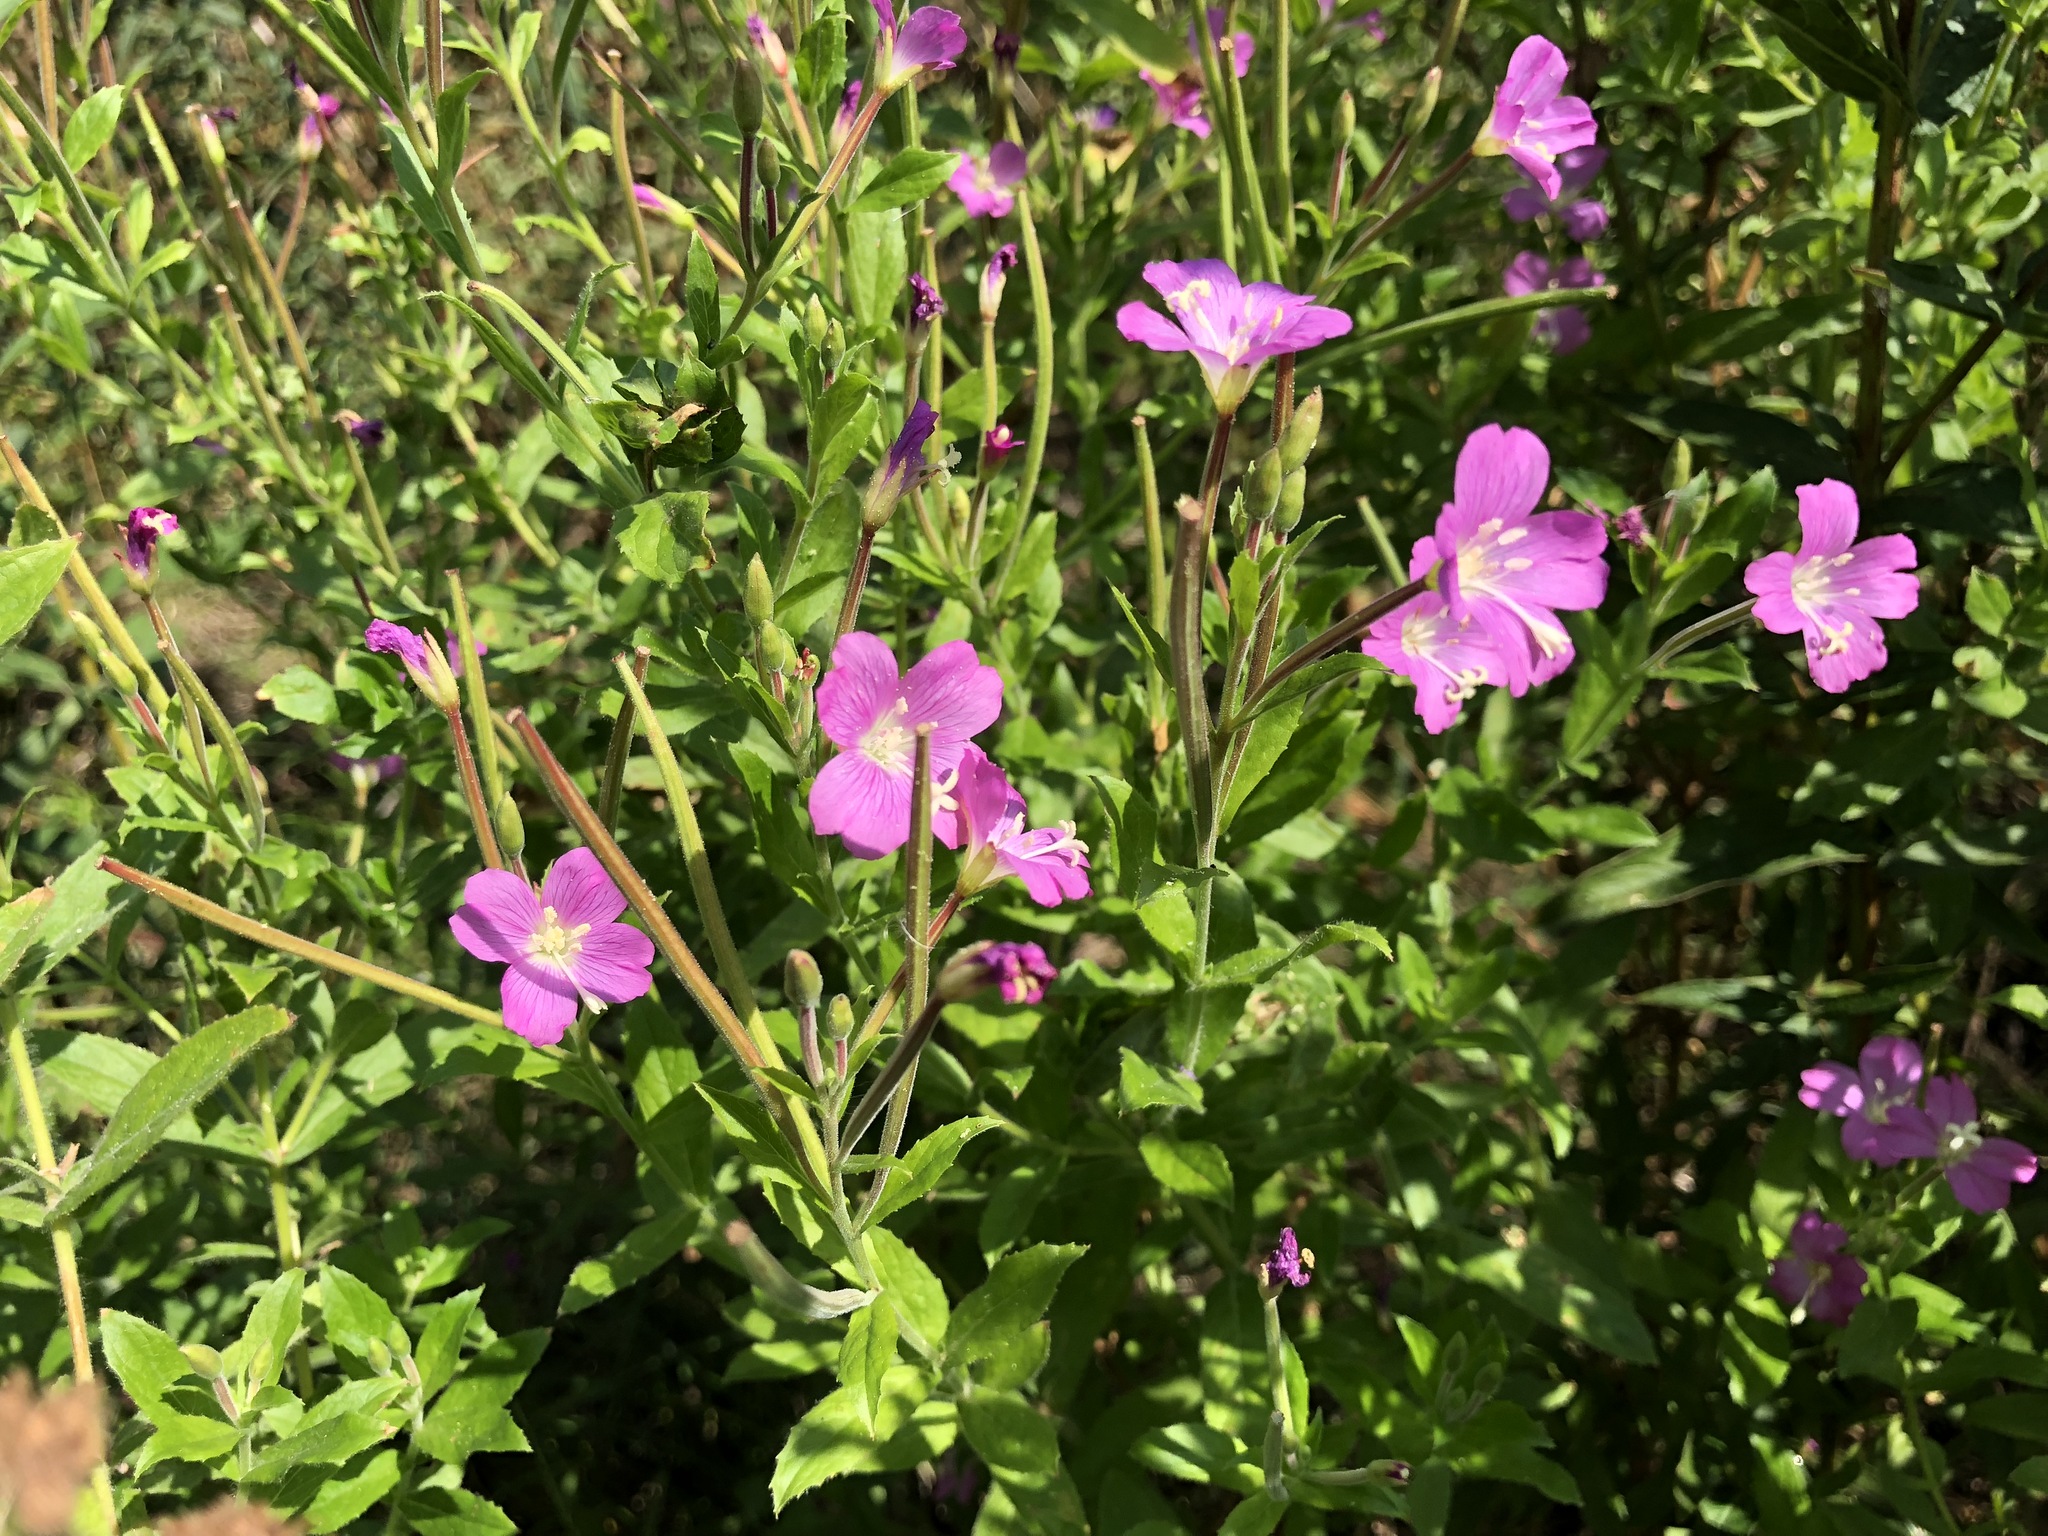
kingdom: Plantae
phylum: Tracheophyta
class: Magnoliopsida
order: Myrtales
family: Onagraceae
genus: Epilobium
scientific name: Epilobium hirsutum
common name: Great willowherb
